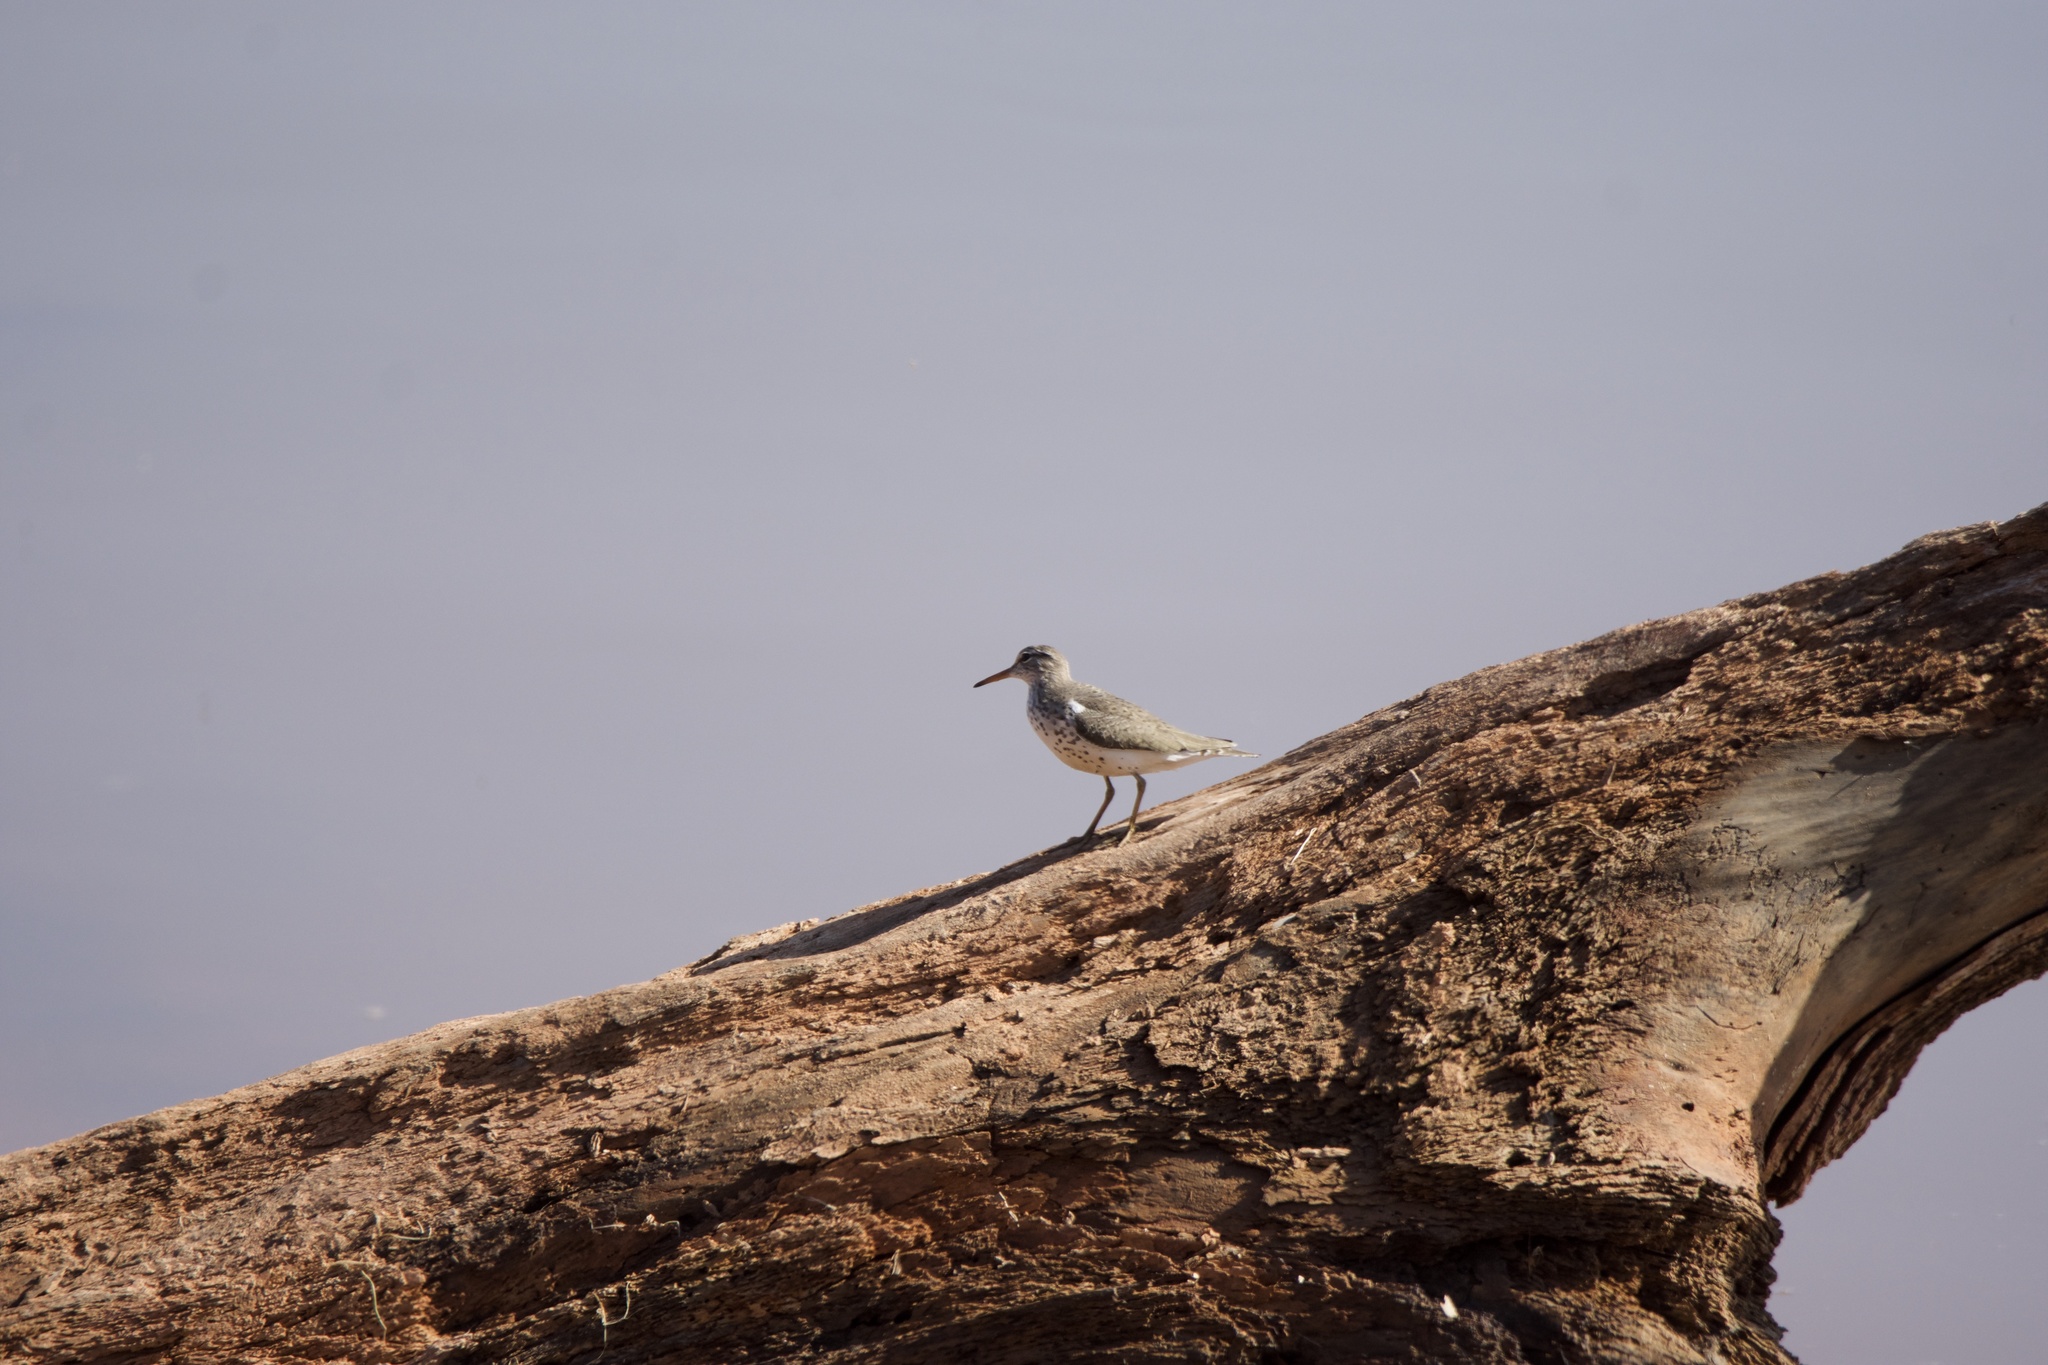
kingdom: Animalia
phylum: Chordata
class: Aves
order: Charadriiformes
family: Scolopacidae
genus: Actitis
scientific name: Actitis macularius
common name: Spotted sandpiper
